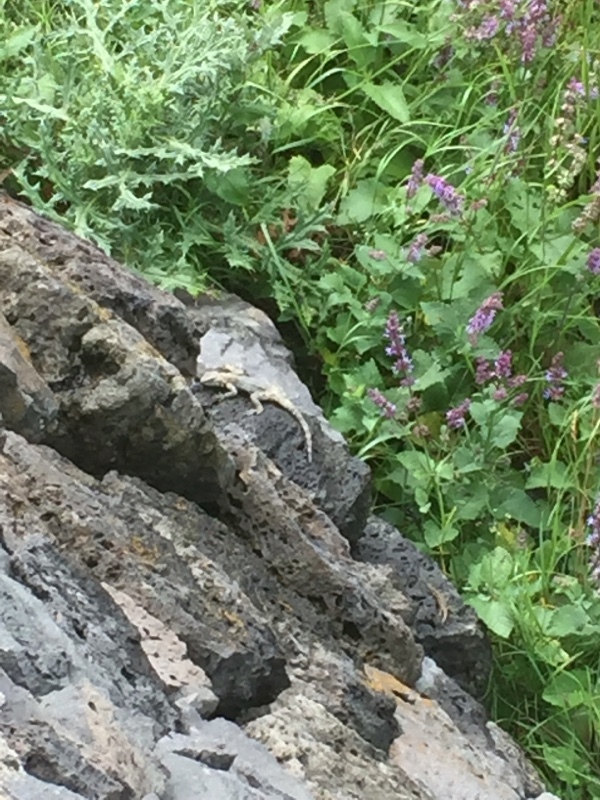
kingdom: Animalia
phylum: Chordata
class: Squamata
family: Agamidae
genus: Paralaudakia
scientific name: Paralaudakia caucasia
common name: Caucasian agama
